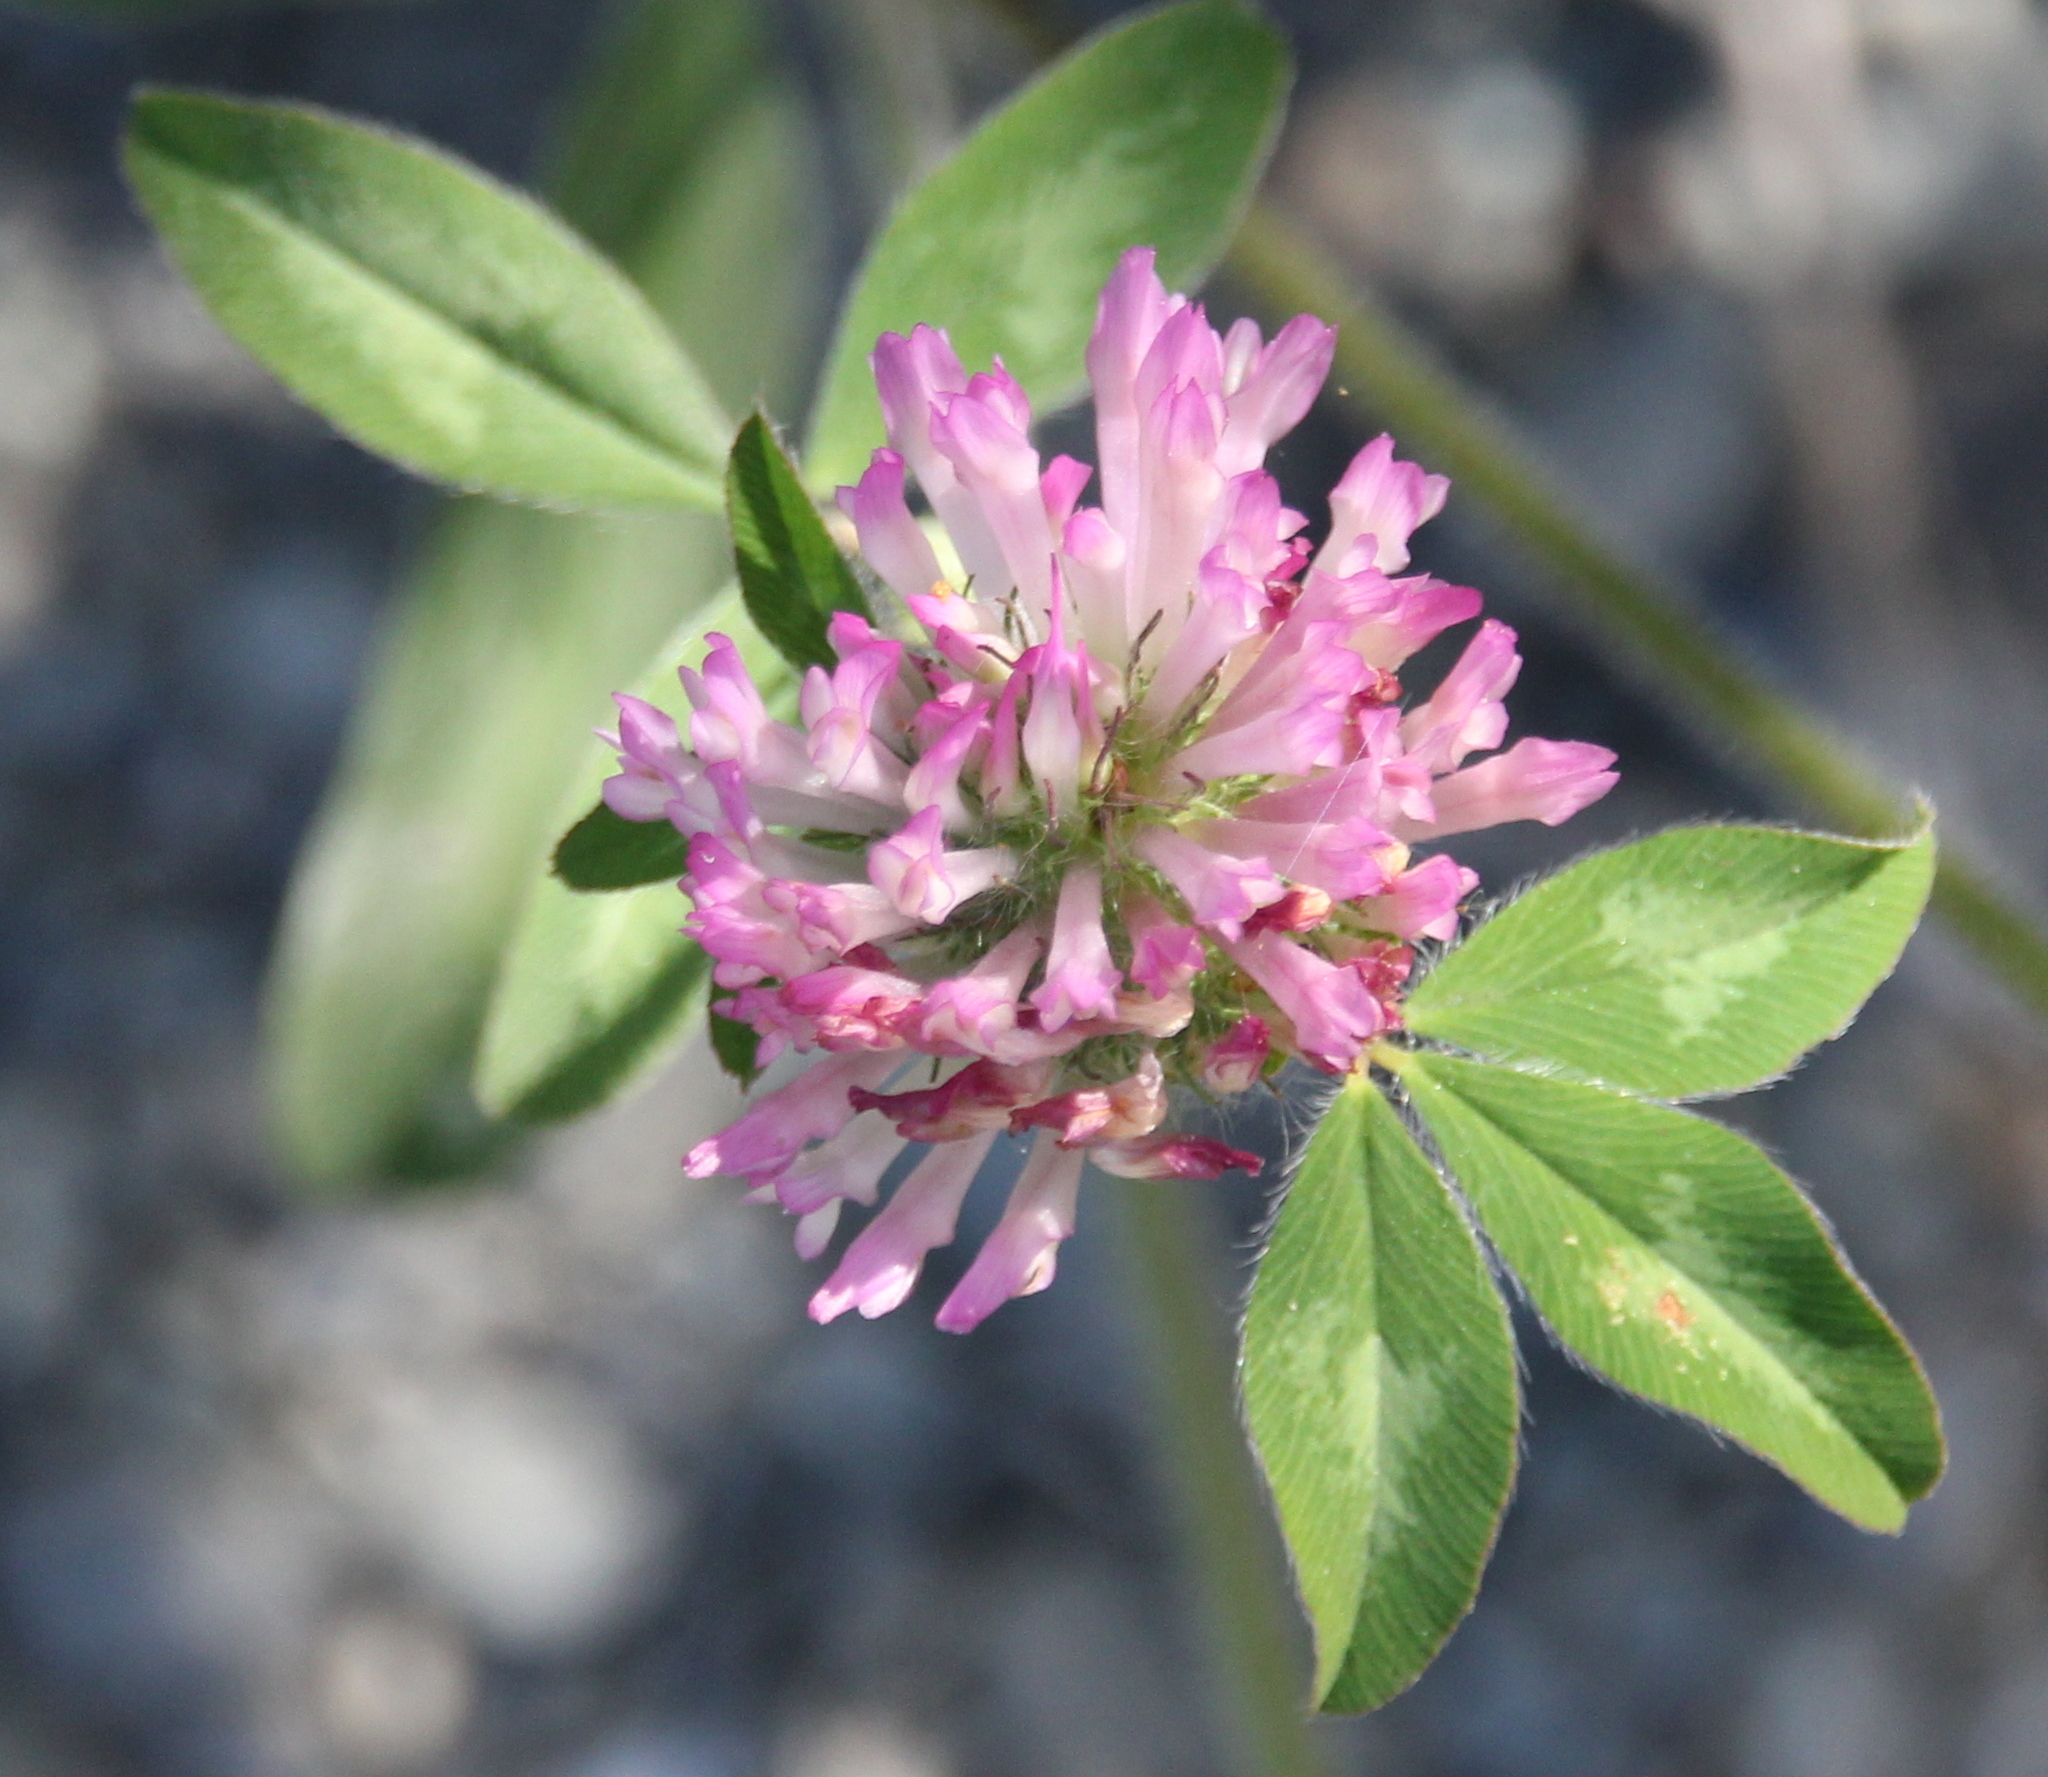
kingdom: Plantae
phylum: Tracheophyta
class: Magnoliopsida
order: Fabales
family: Fabaceae
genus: Trifolium
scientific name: Trifolium pratense
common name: Red clover
